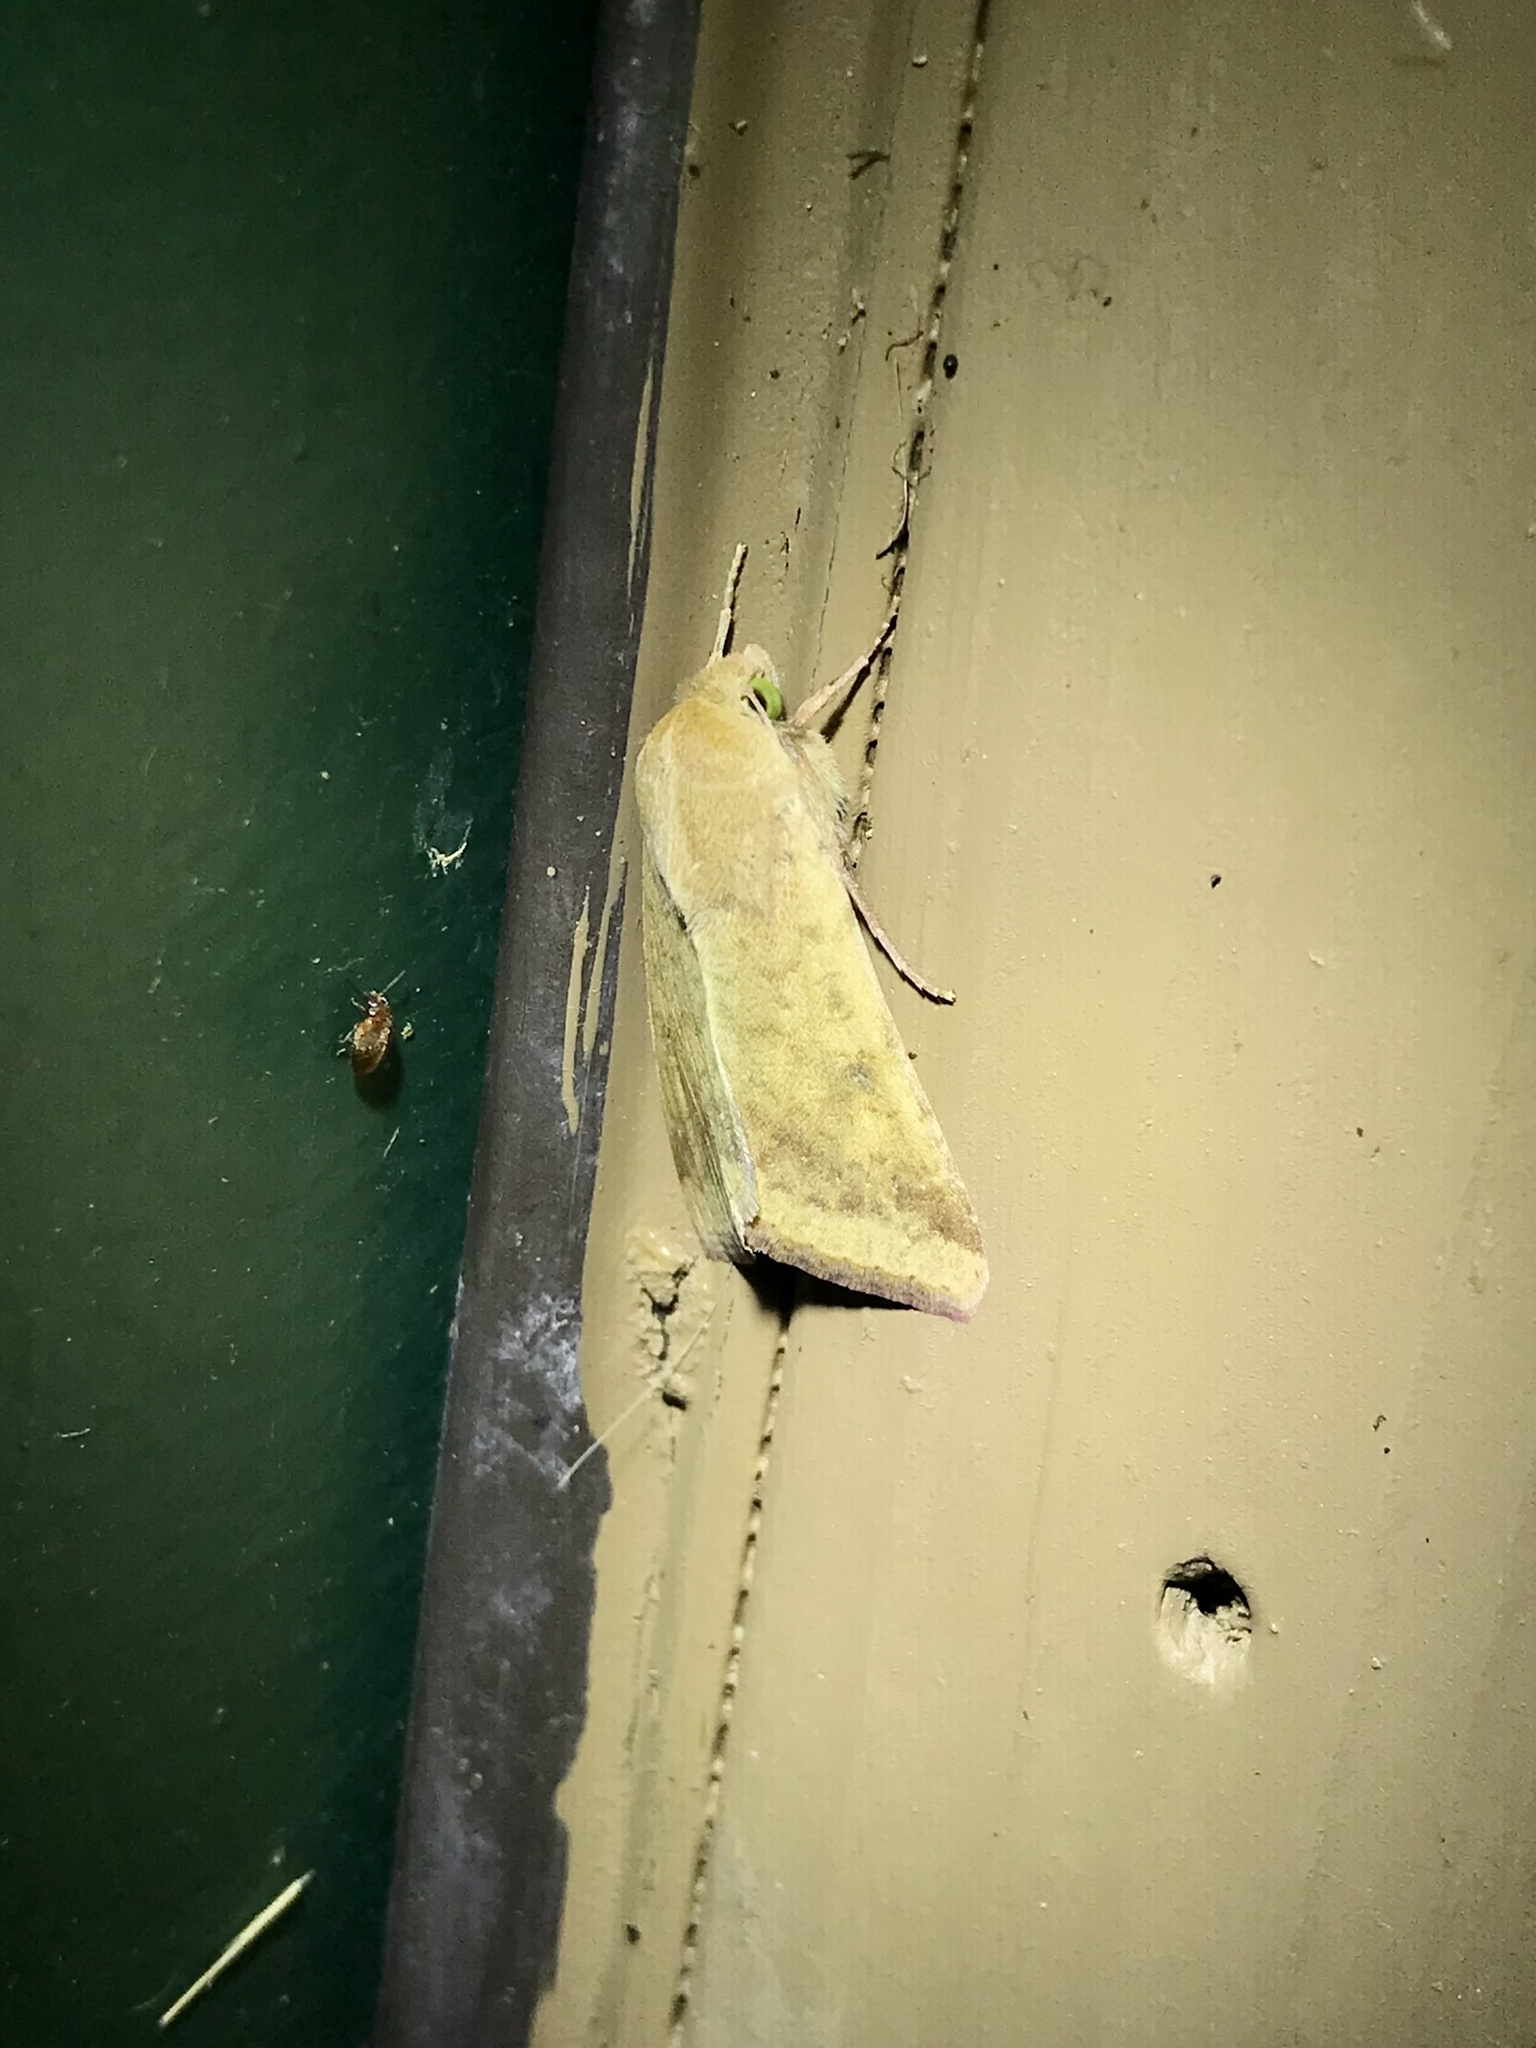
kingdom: Animalia
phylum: Arthropoda
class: Insecta
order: Lepidoptera
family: Noctuidae
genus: Helicoverpa
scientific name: Helicoverpa zea
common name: Bollworm
